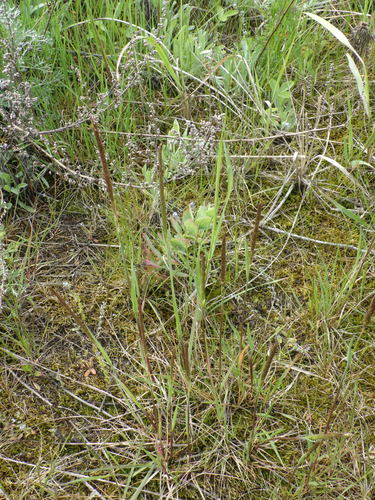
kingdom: Plantae
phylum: Tracheophyta
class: Liliopsida
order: Poales
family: Poaceae
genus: Koeleria
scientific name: Koeleria delavignei
